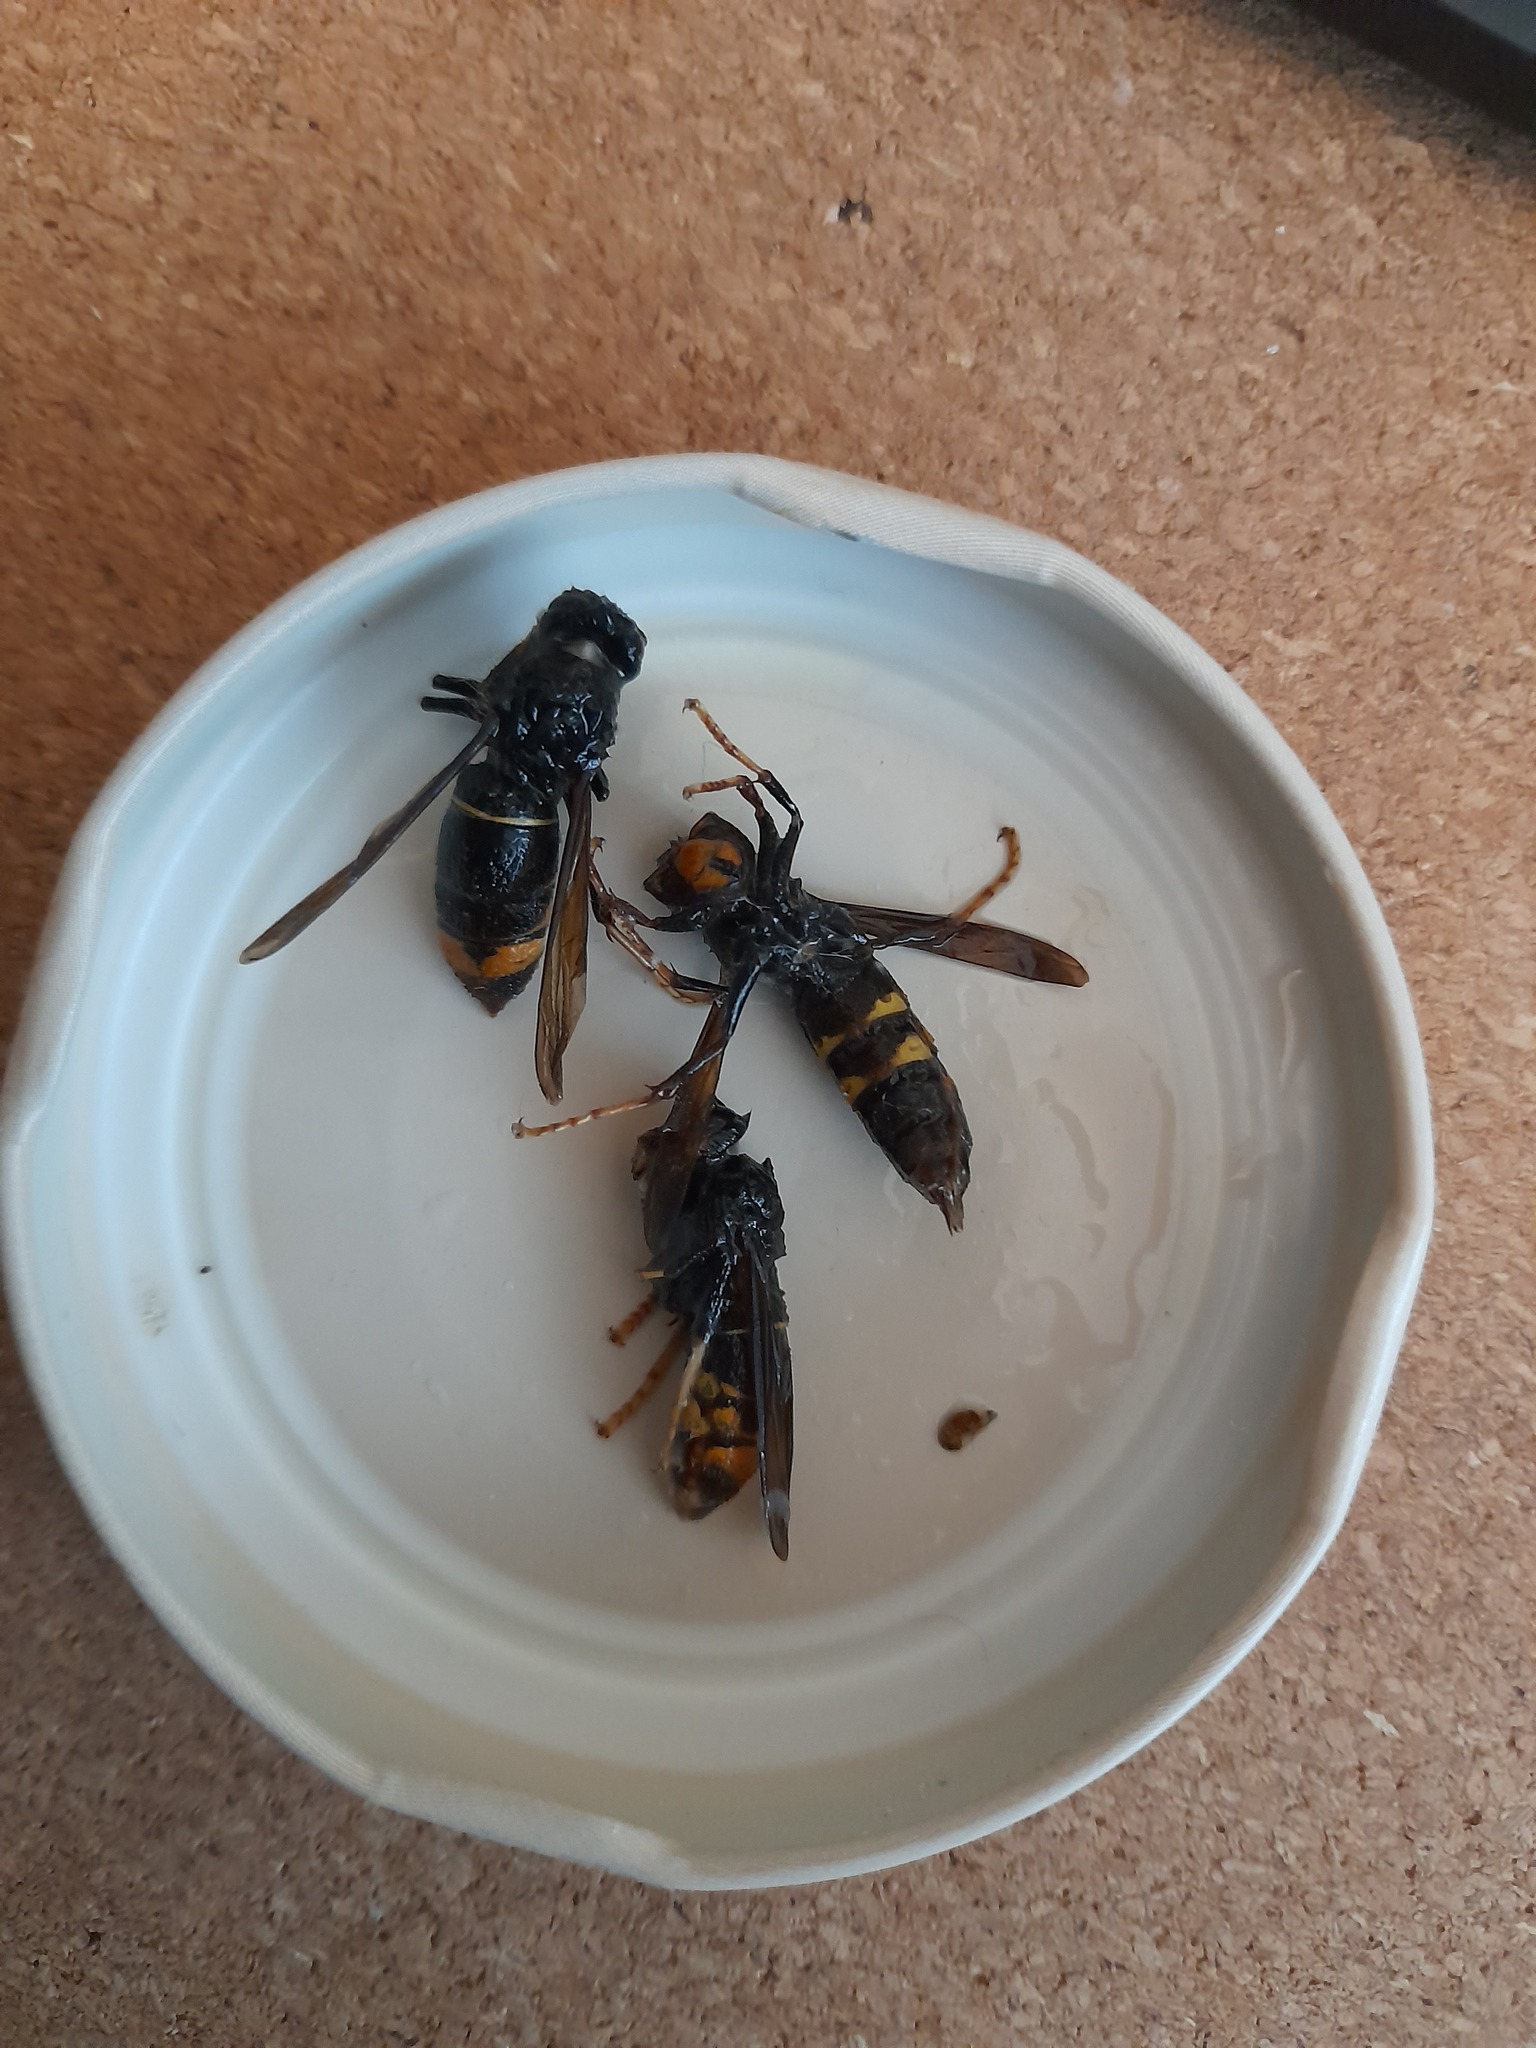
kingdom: Animalia
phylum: Arthropoda
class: Insecta
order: Hymenoptera
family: Vespidae
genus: Vespa
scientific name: Vespa velutina
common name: Asian hornet
